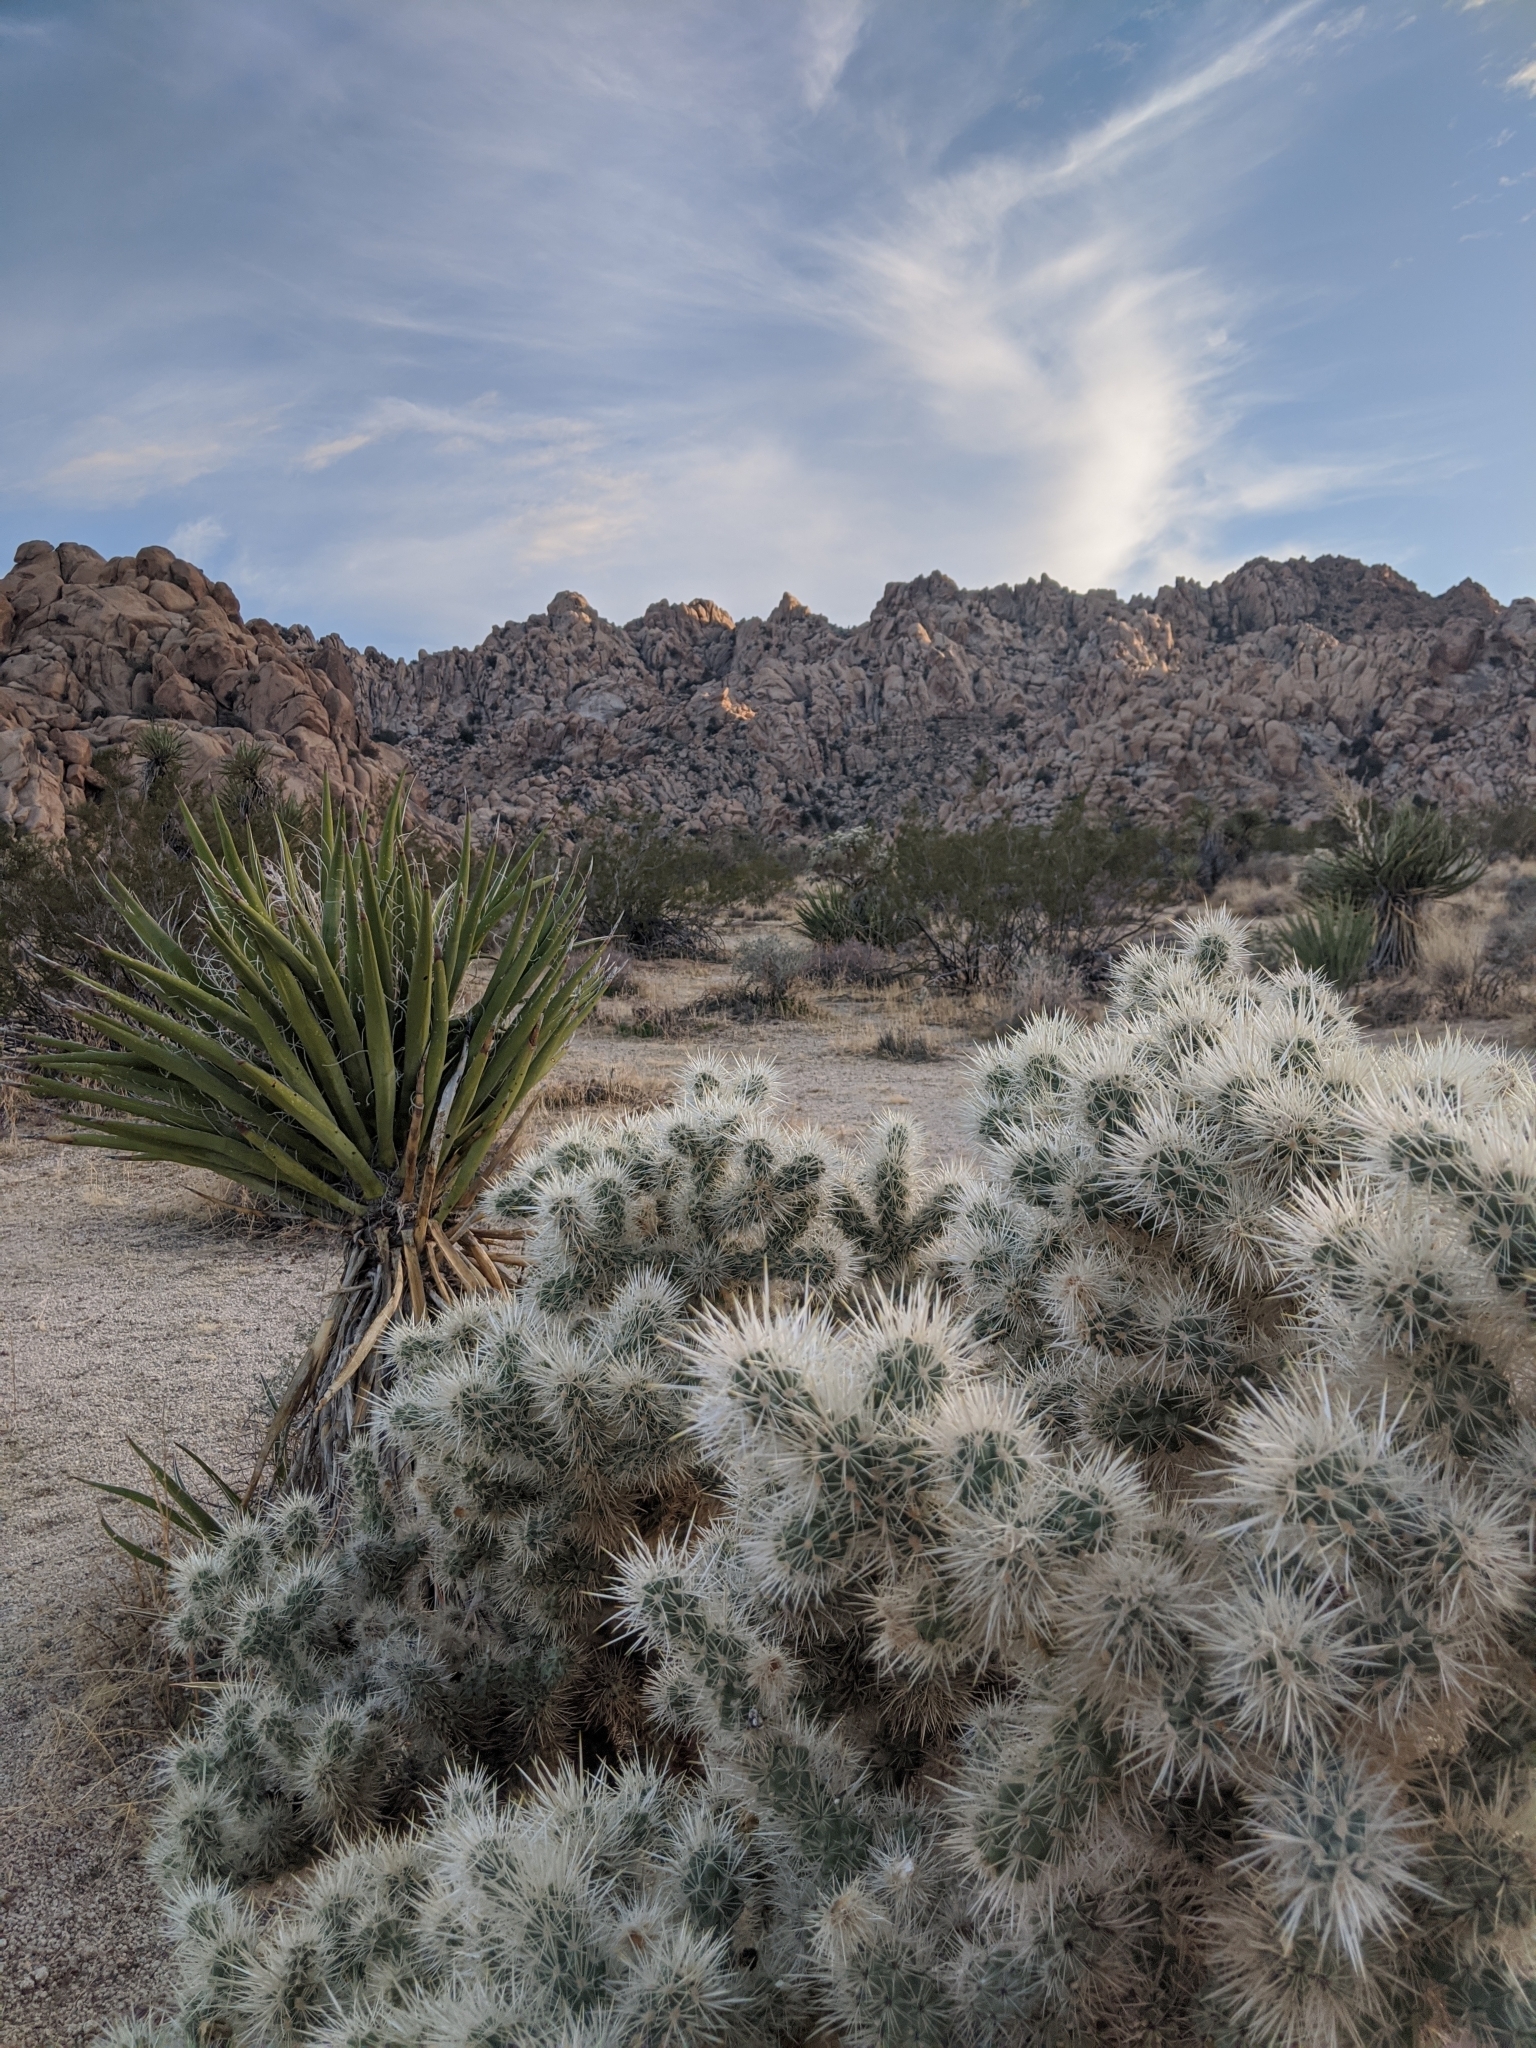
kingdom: Plantae
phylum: Tracheophyta
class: Magnoliopsida
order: Caryophyllales
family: Cactaceae
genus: Cylindropuntia
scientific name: Cylindropuntia echinocarpa
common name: Ground cholla
